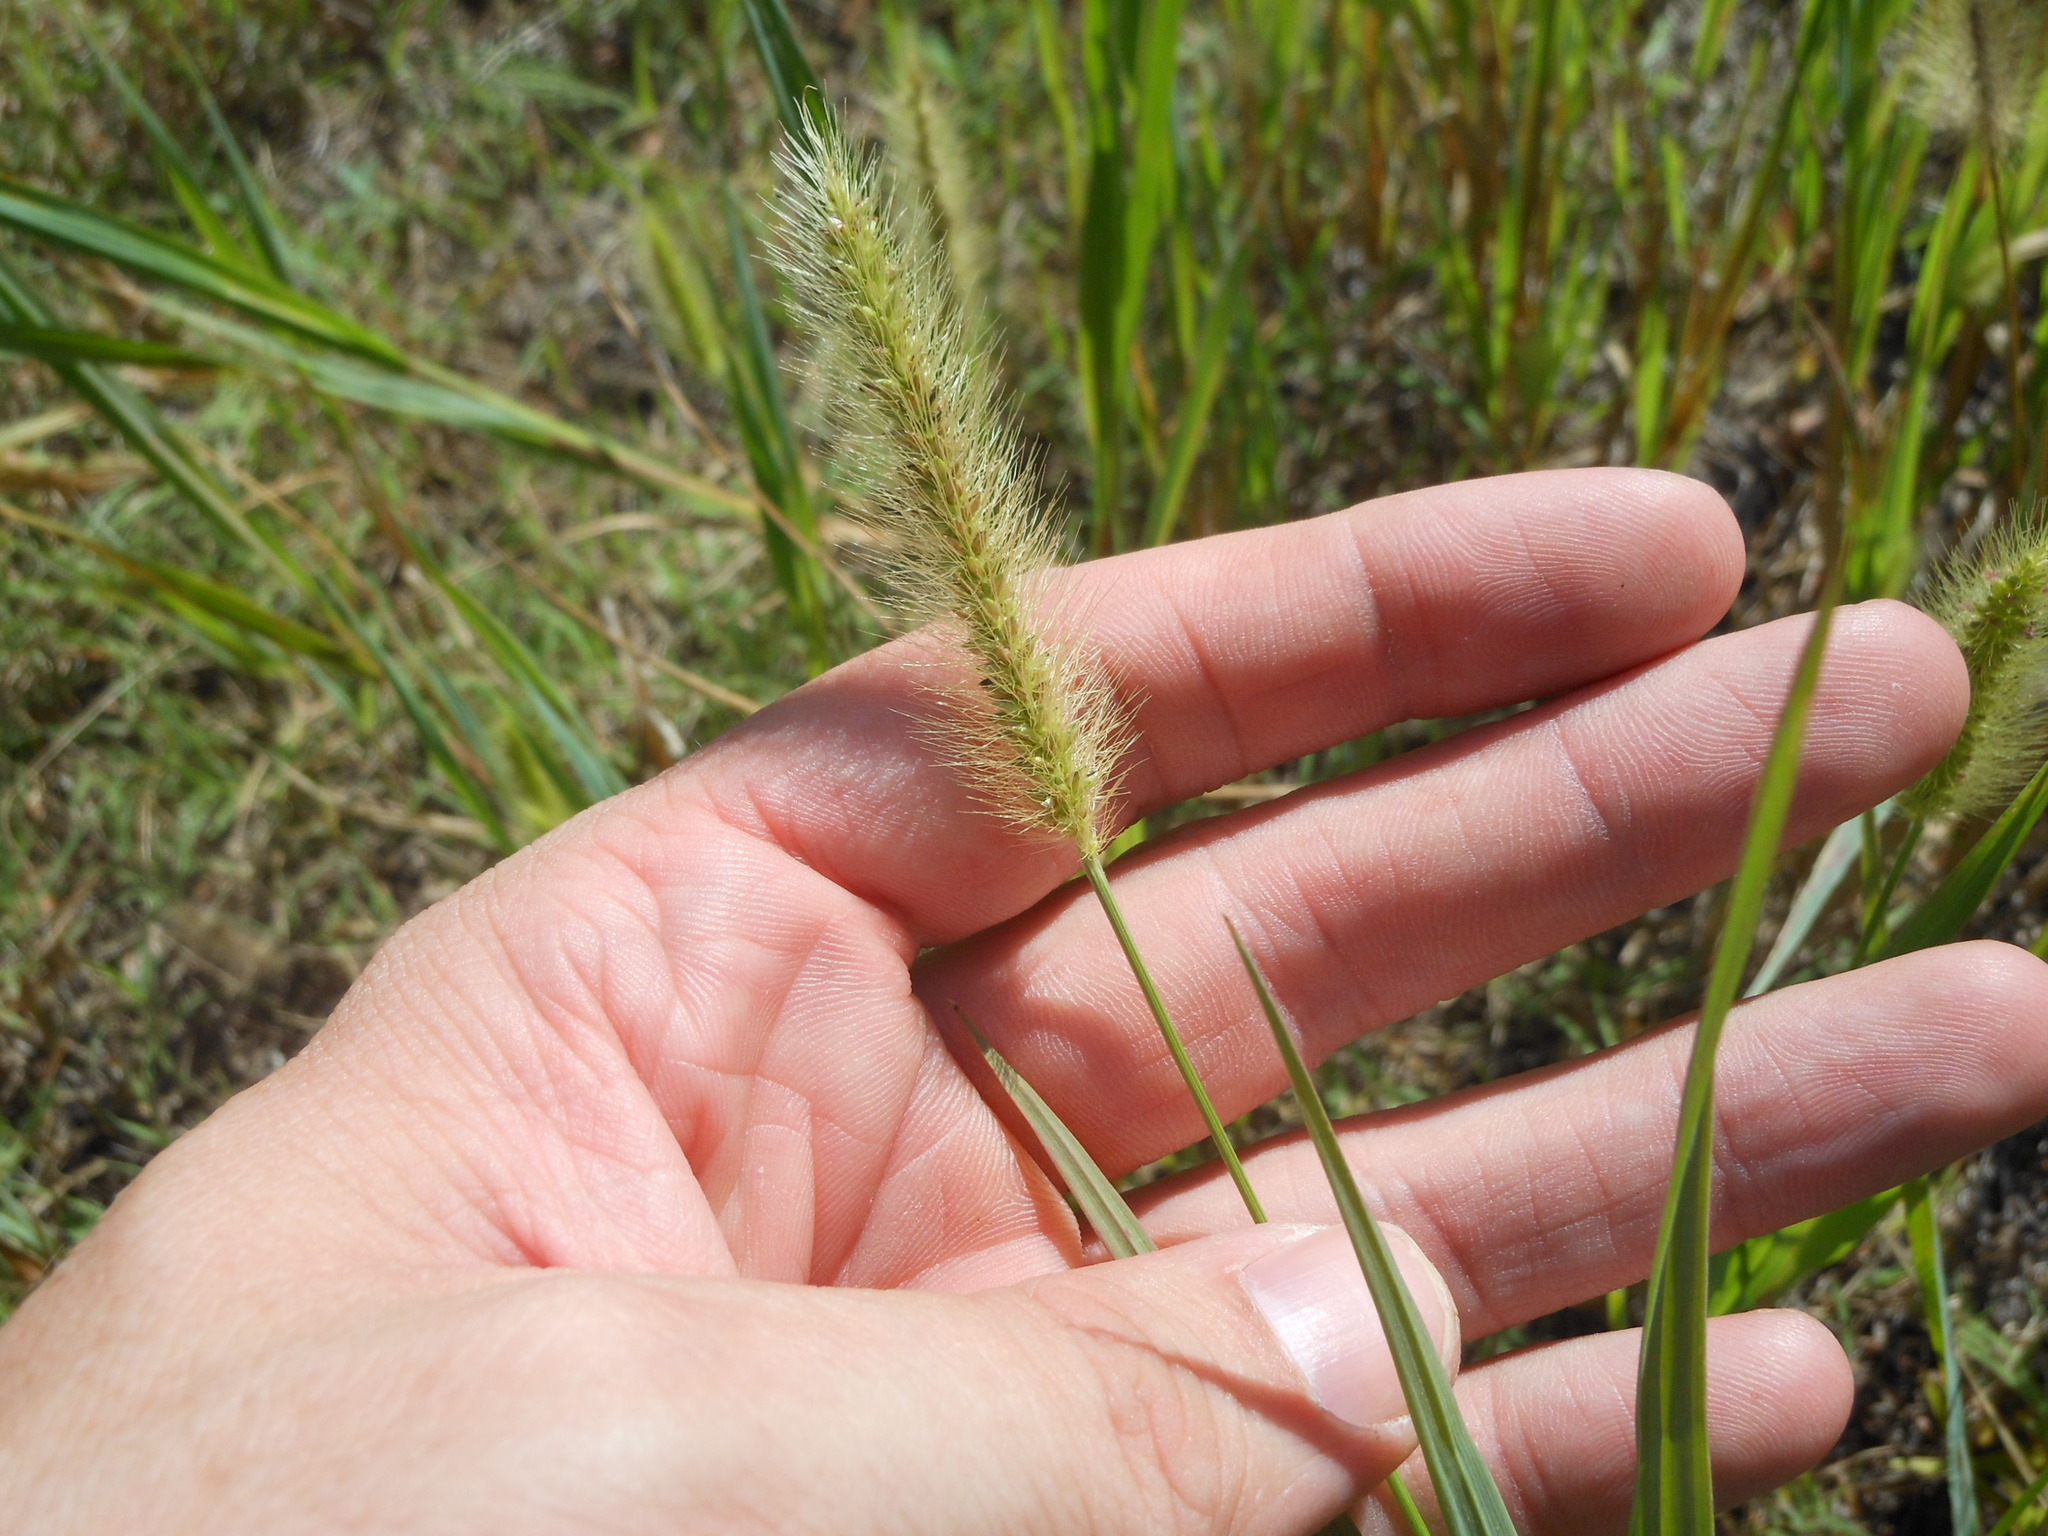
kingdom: Plantae
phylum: Tracheophyta
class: Liliopsida
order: Poales
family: Poaceae
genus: Setaria
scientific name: Setaria parviflora
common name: Knotroot bristle-grass
